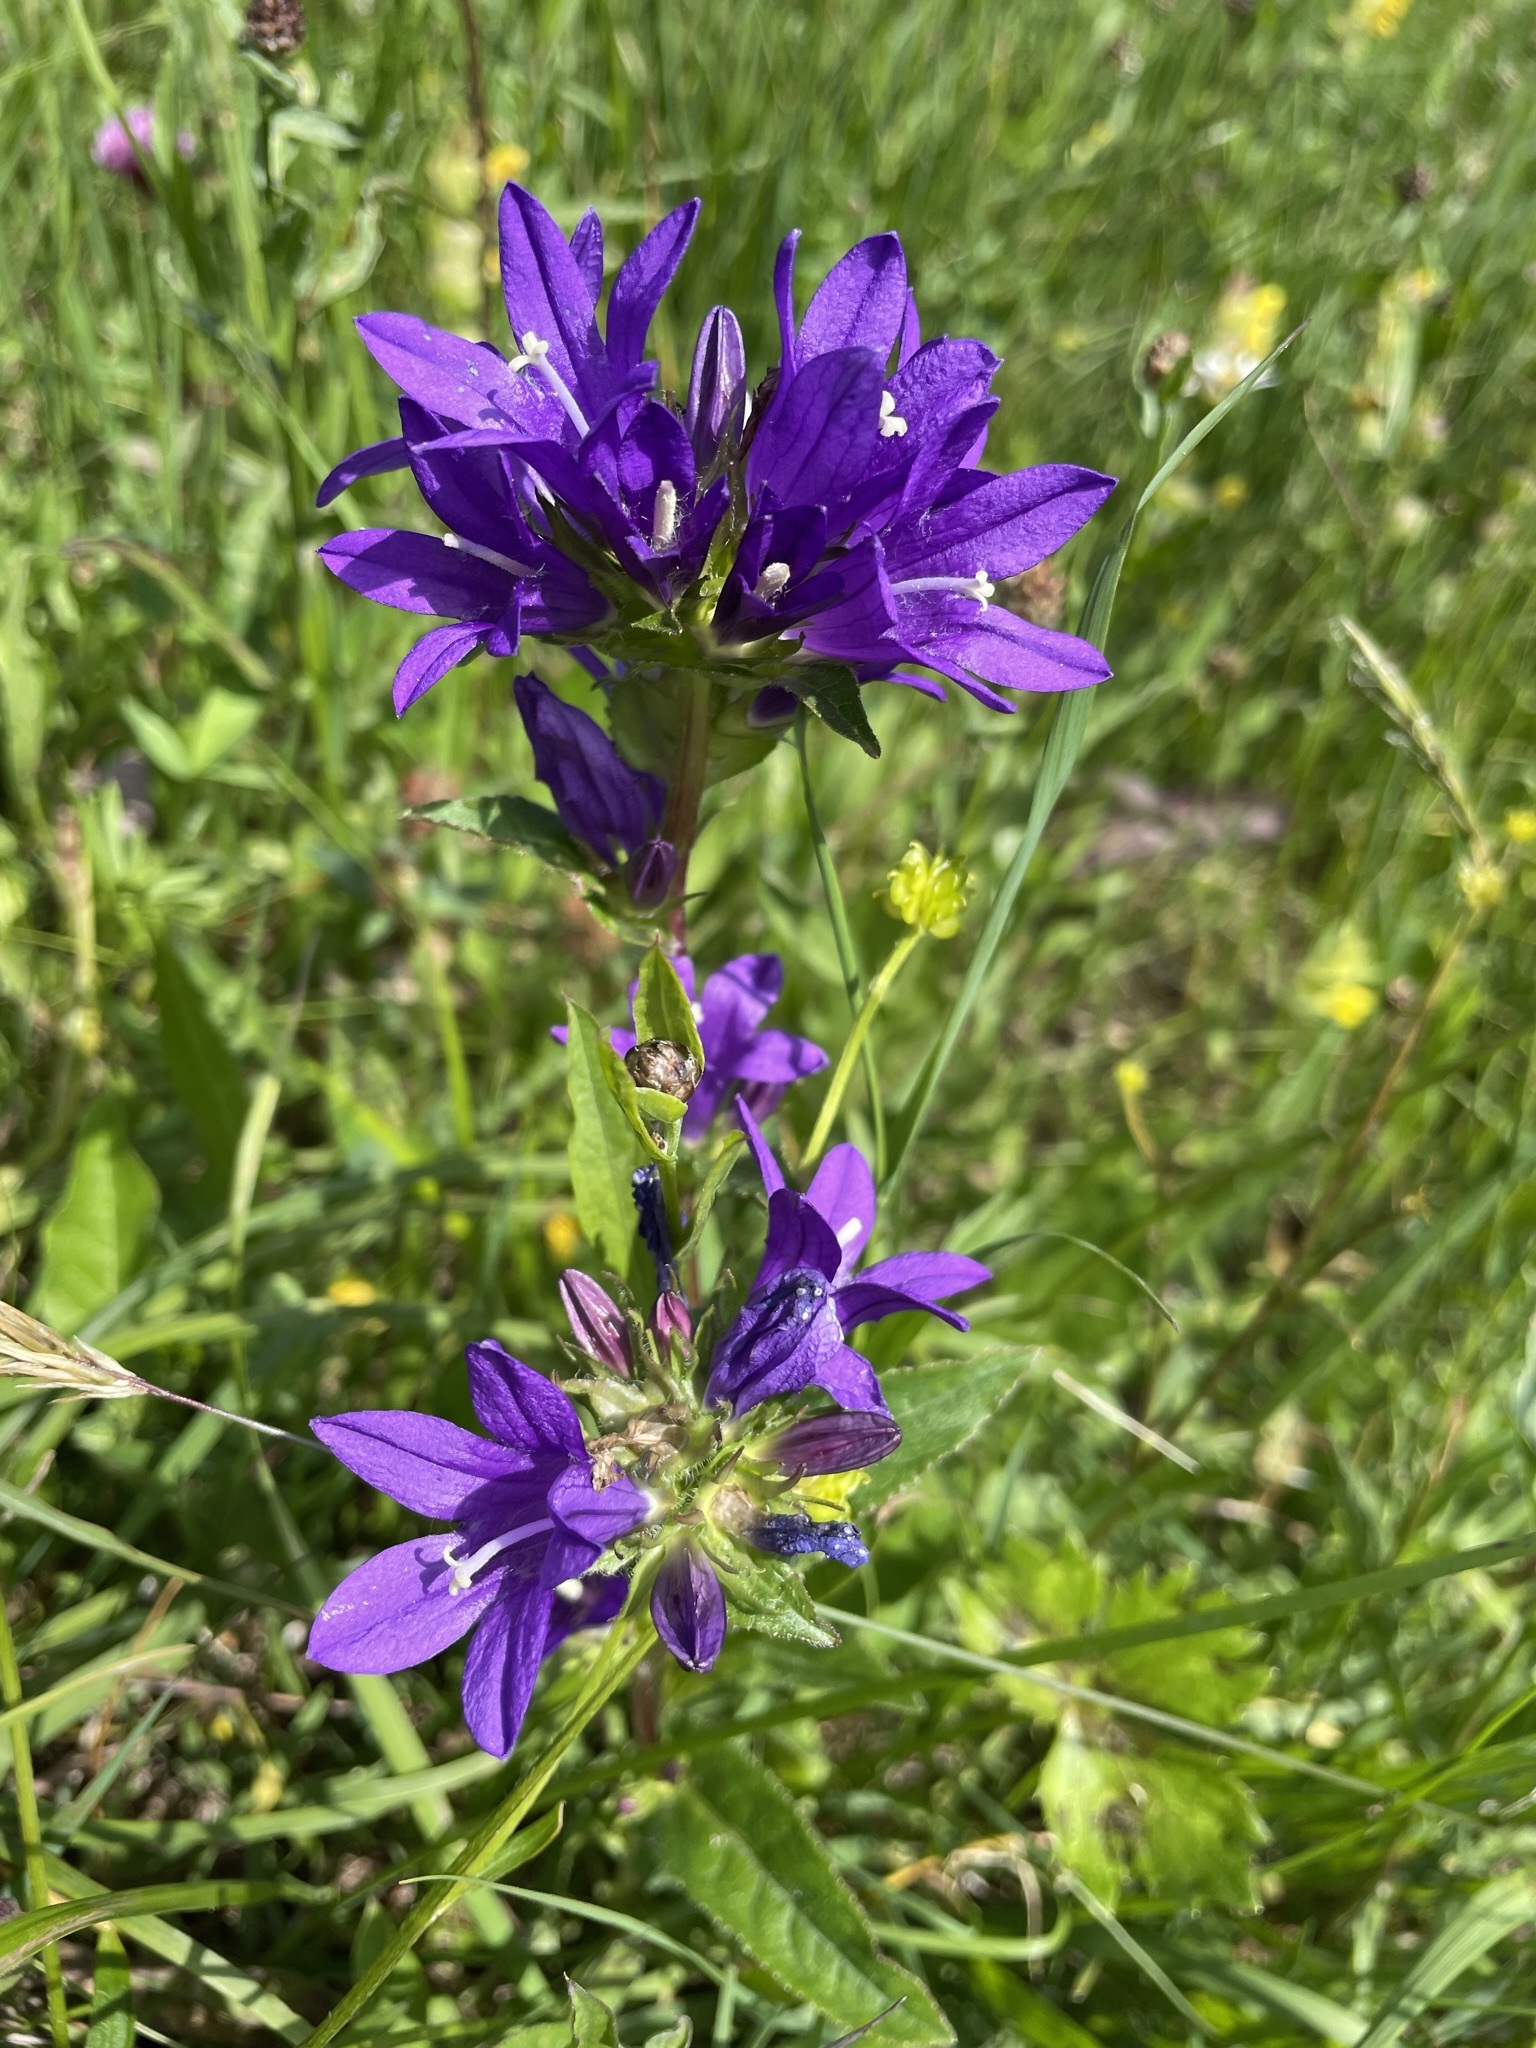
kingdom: Plantae
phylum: Tracheophyta
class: Magnoliopsida
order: Asterales
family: Campanulaceae
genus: Campanula
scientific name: Campanula glomerata
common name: Clustered bellflower
